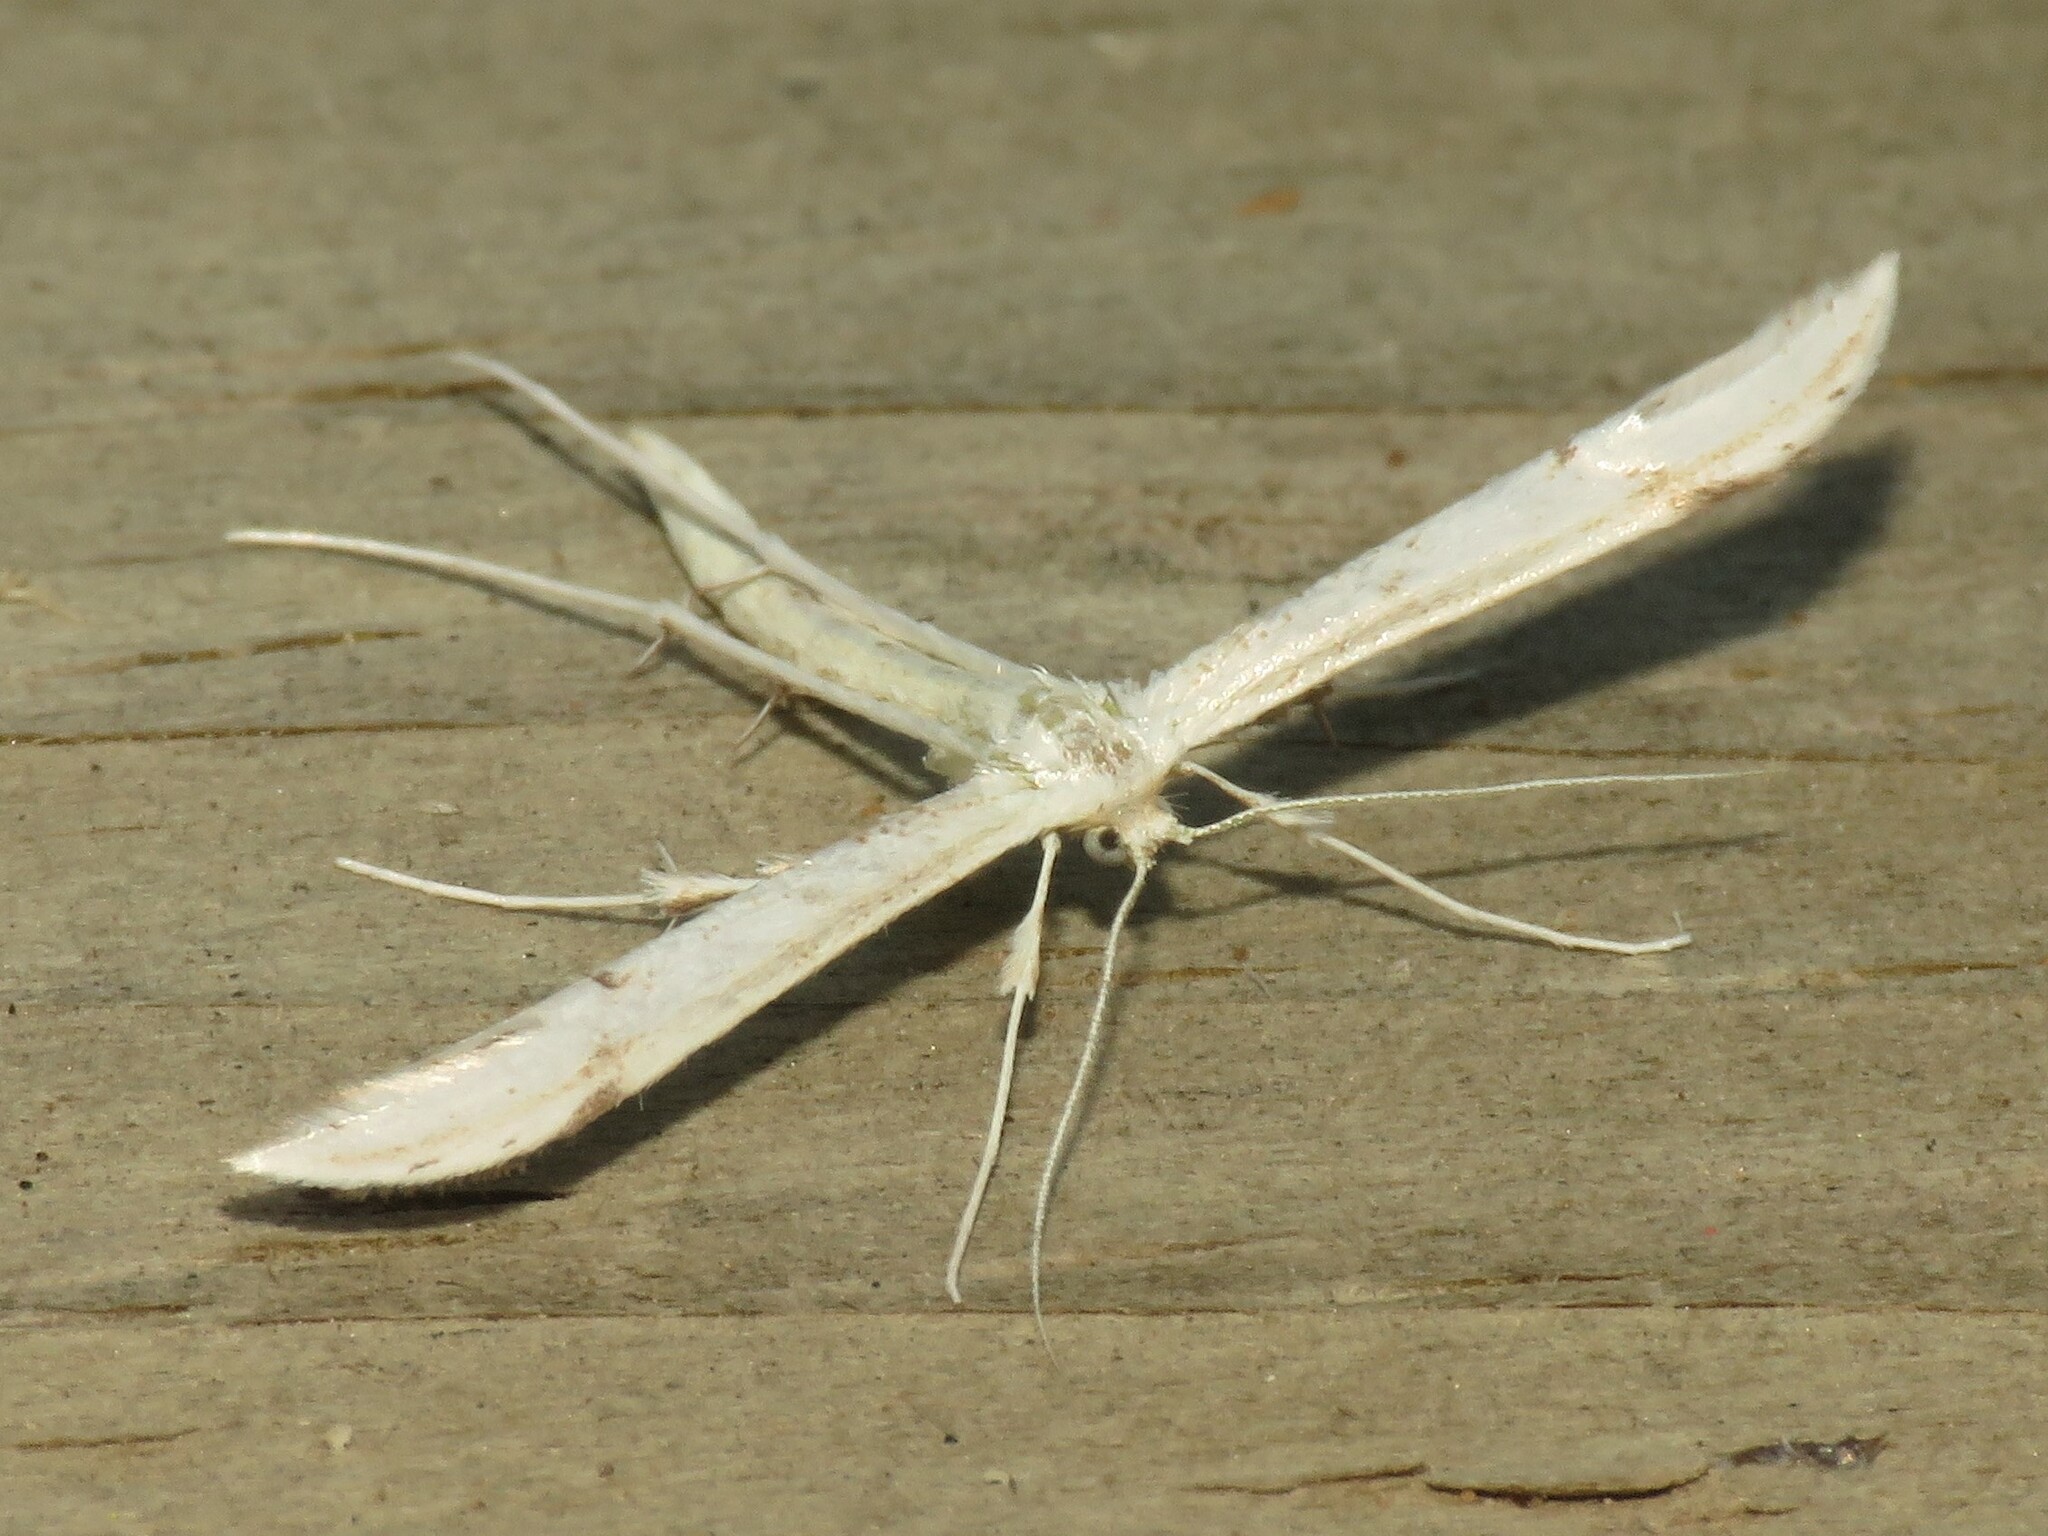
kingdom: Animalia
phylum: Arthropoda
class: Insecta
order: Lepidoptera
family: Pterophoridae
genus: Hellinsia
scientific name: Hellinsia elliottii
